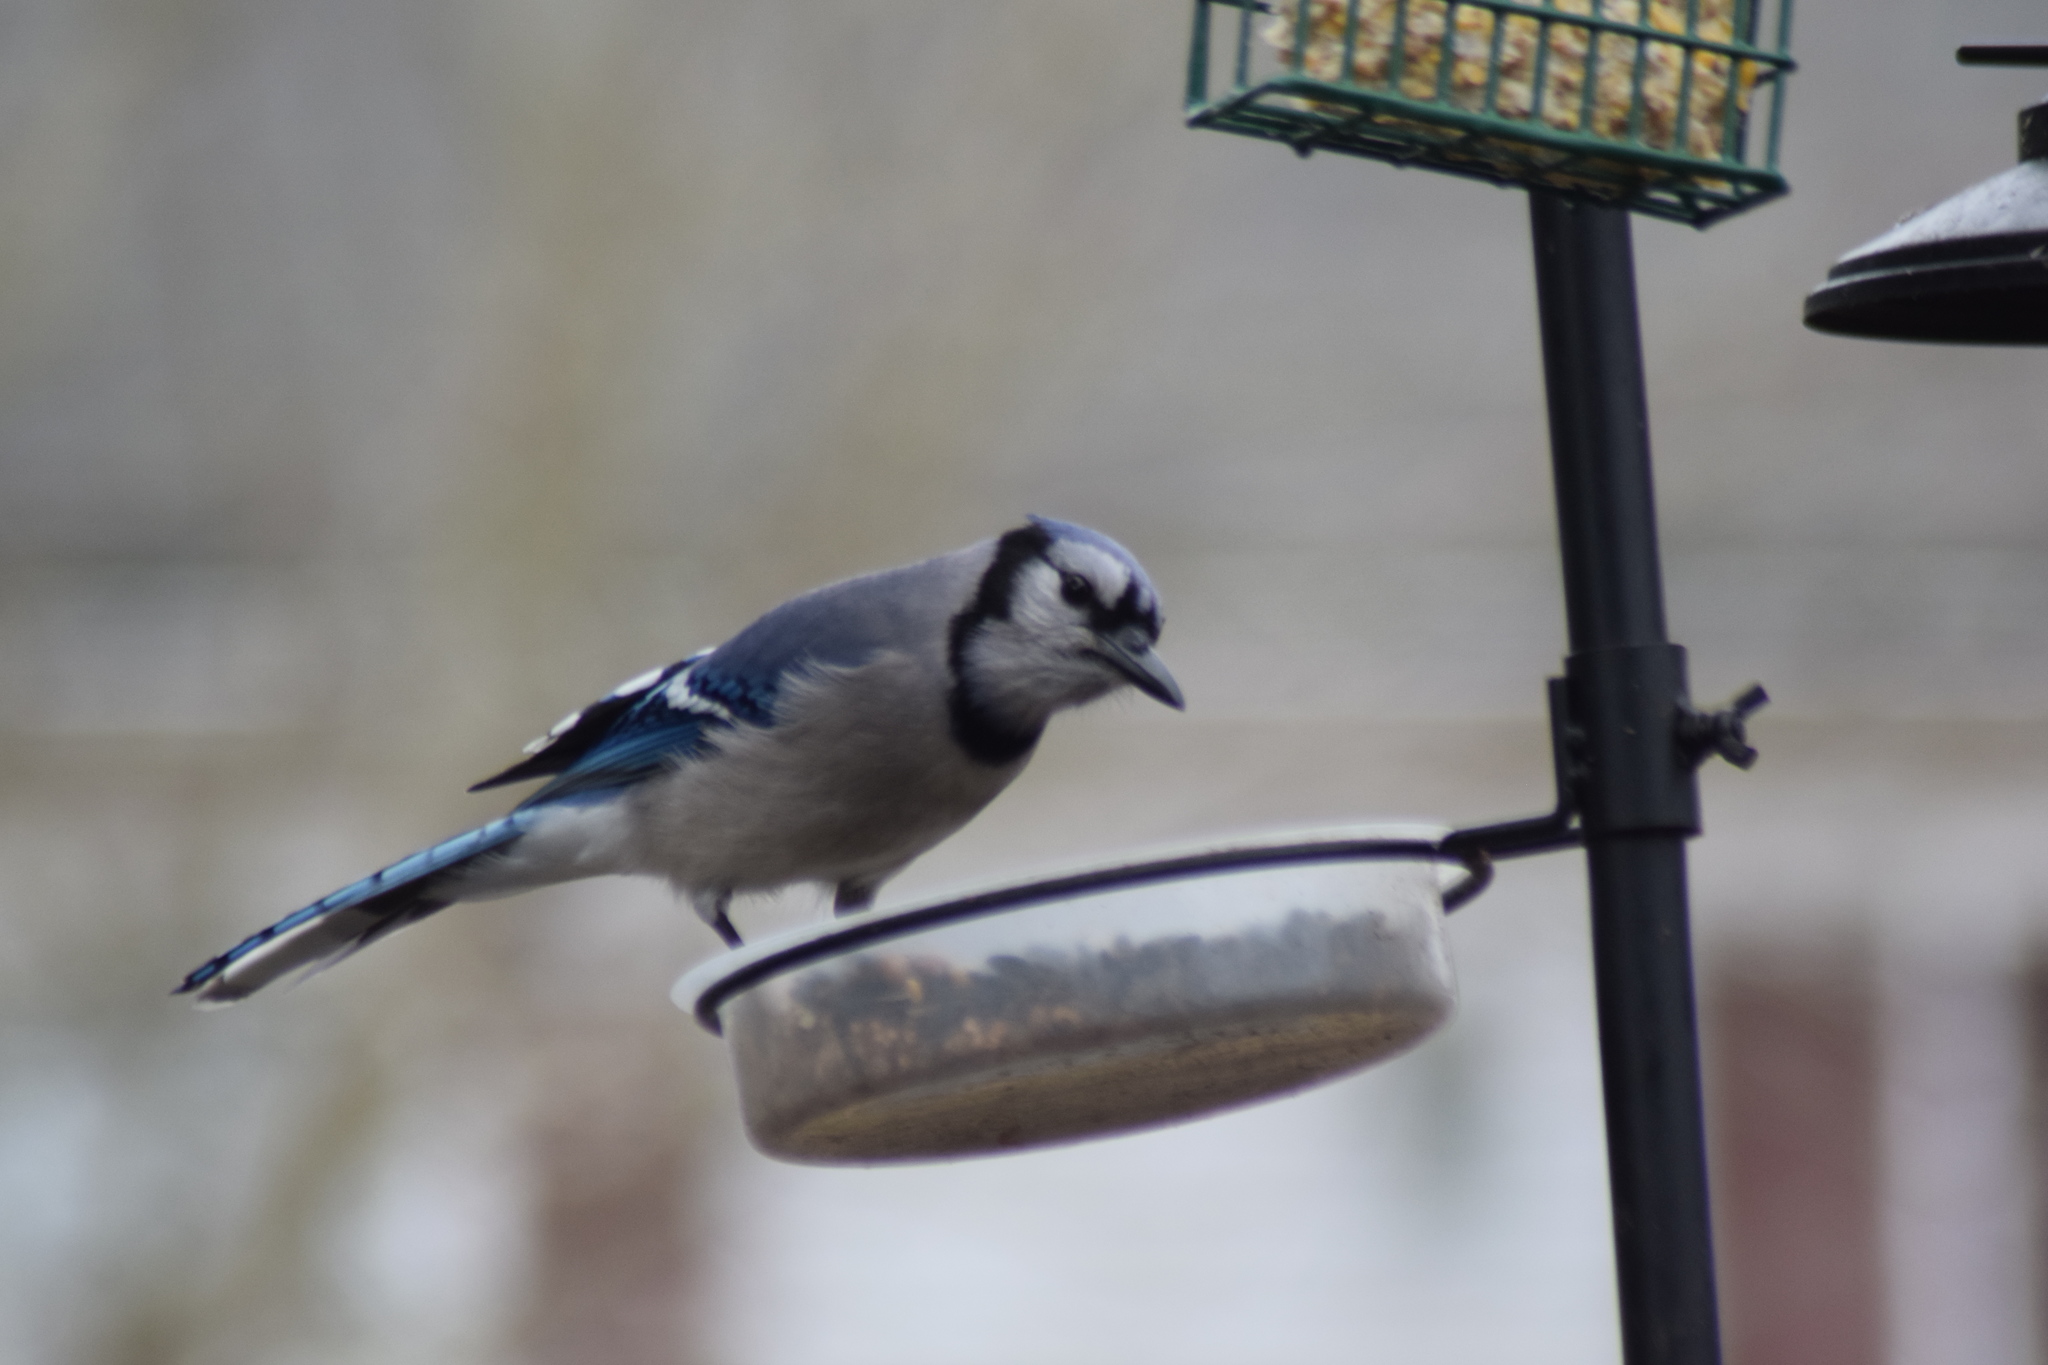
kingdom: Animalia
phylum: Chordata
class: Aves
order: Passeriformes
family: Corvidae
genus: Cyanocitta
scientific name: Cyanocitta cristata
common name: Blue jay
